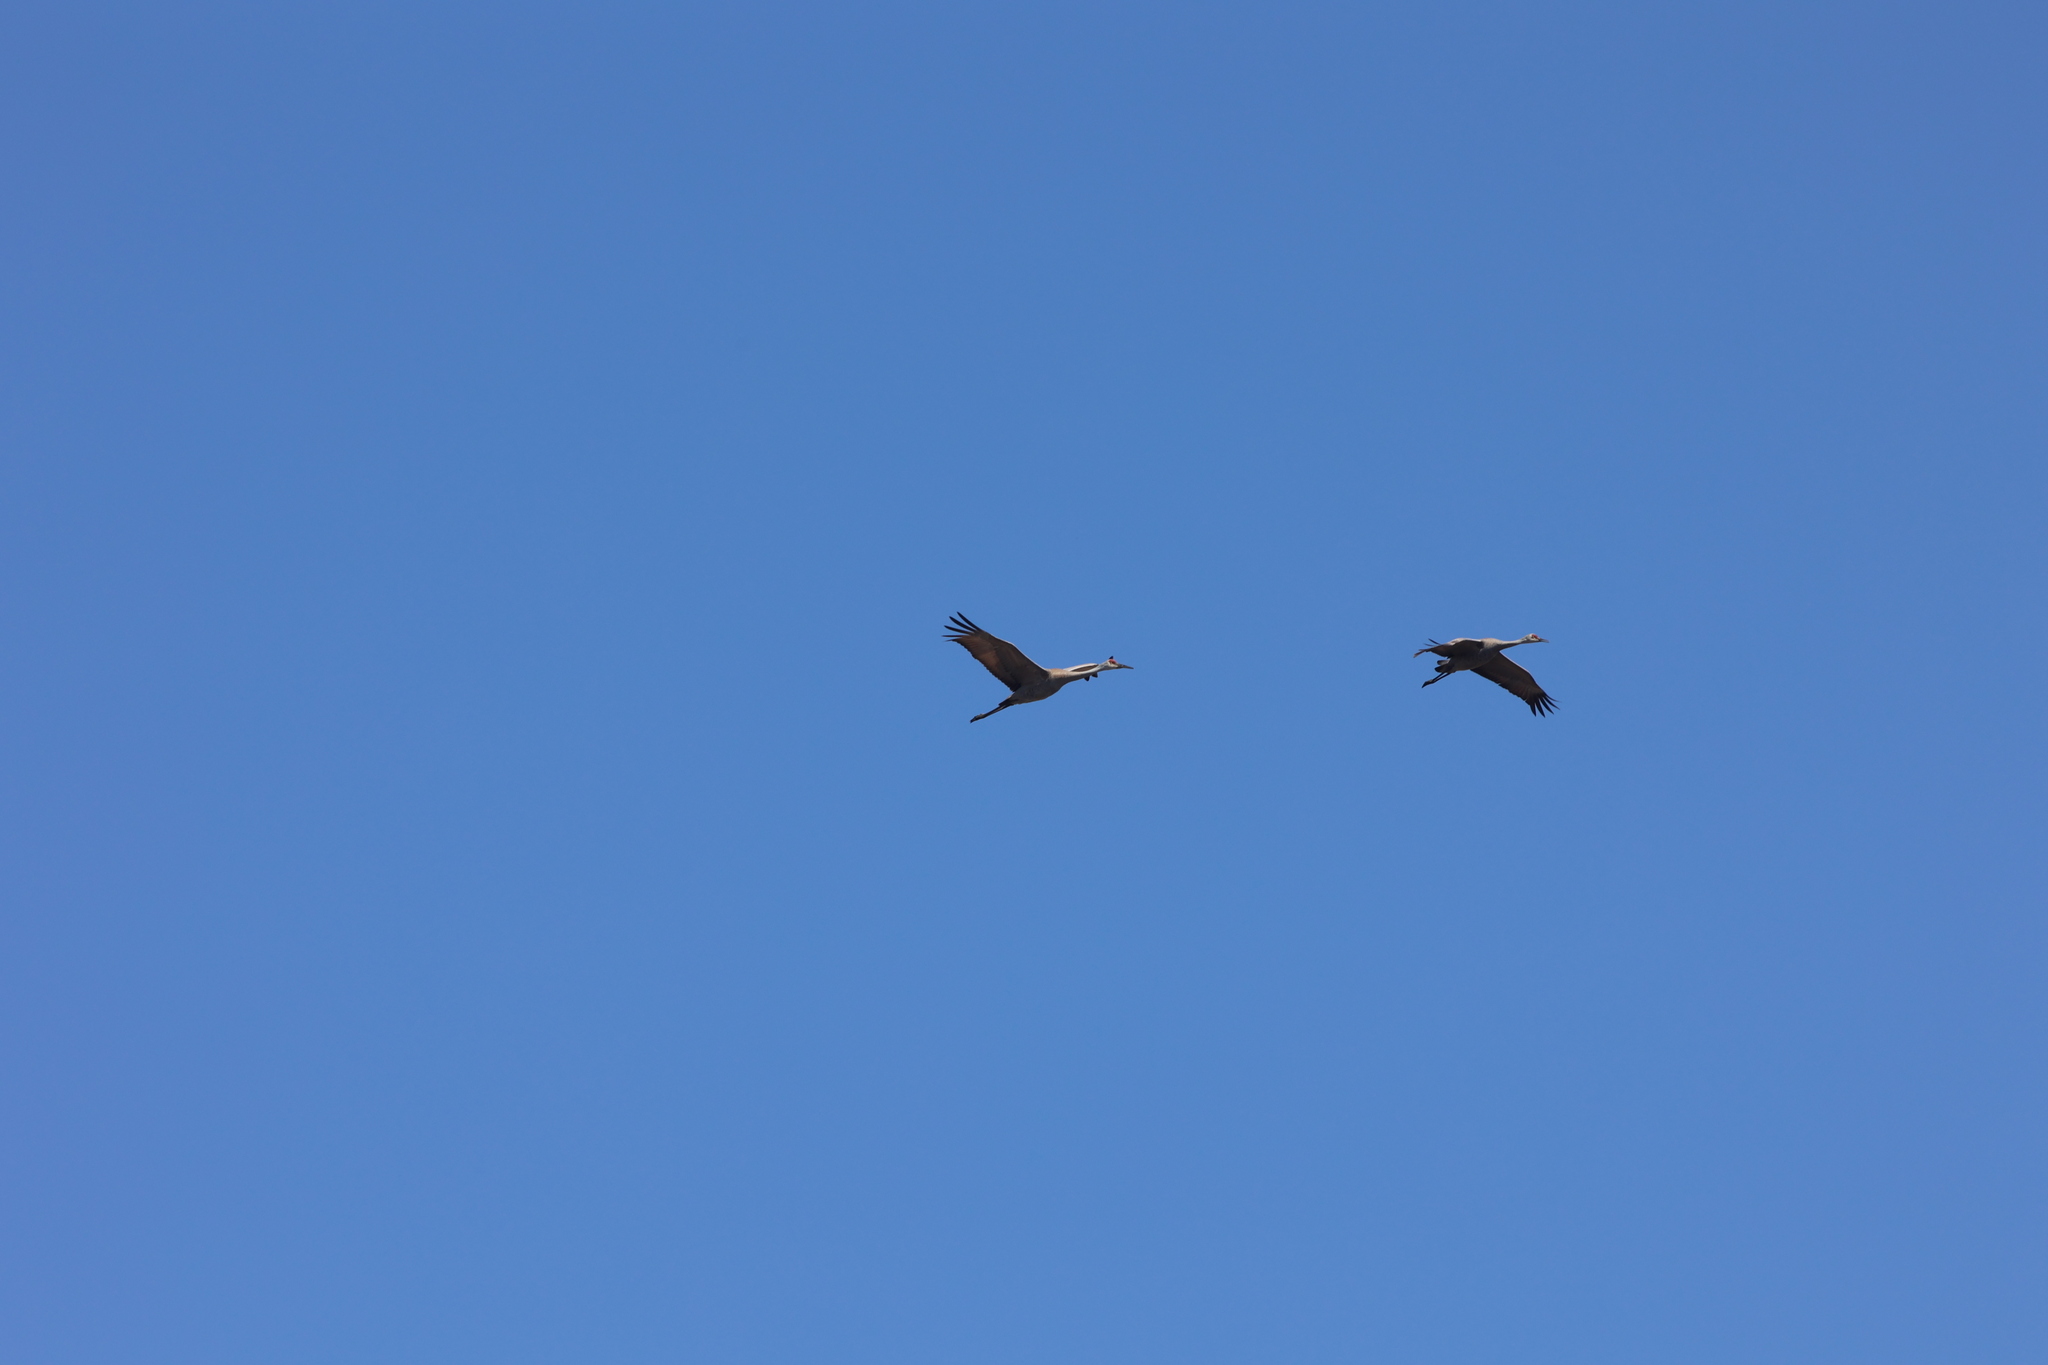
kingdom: Animalia
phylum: Chordata
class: Aves
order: Gruiformes
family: Gruidae
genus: Grus
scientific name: Grus canadensis
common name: Sandhill crane
